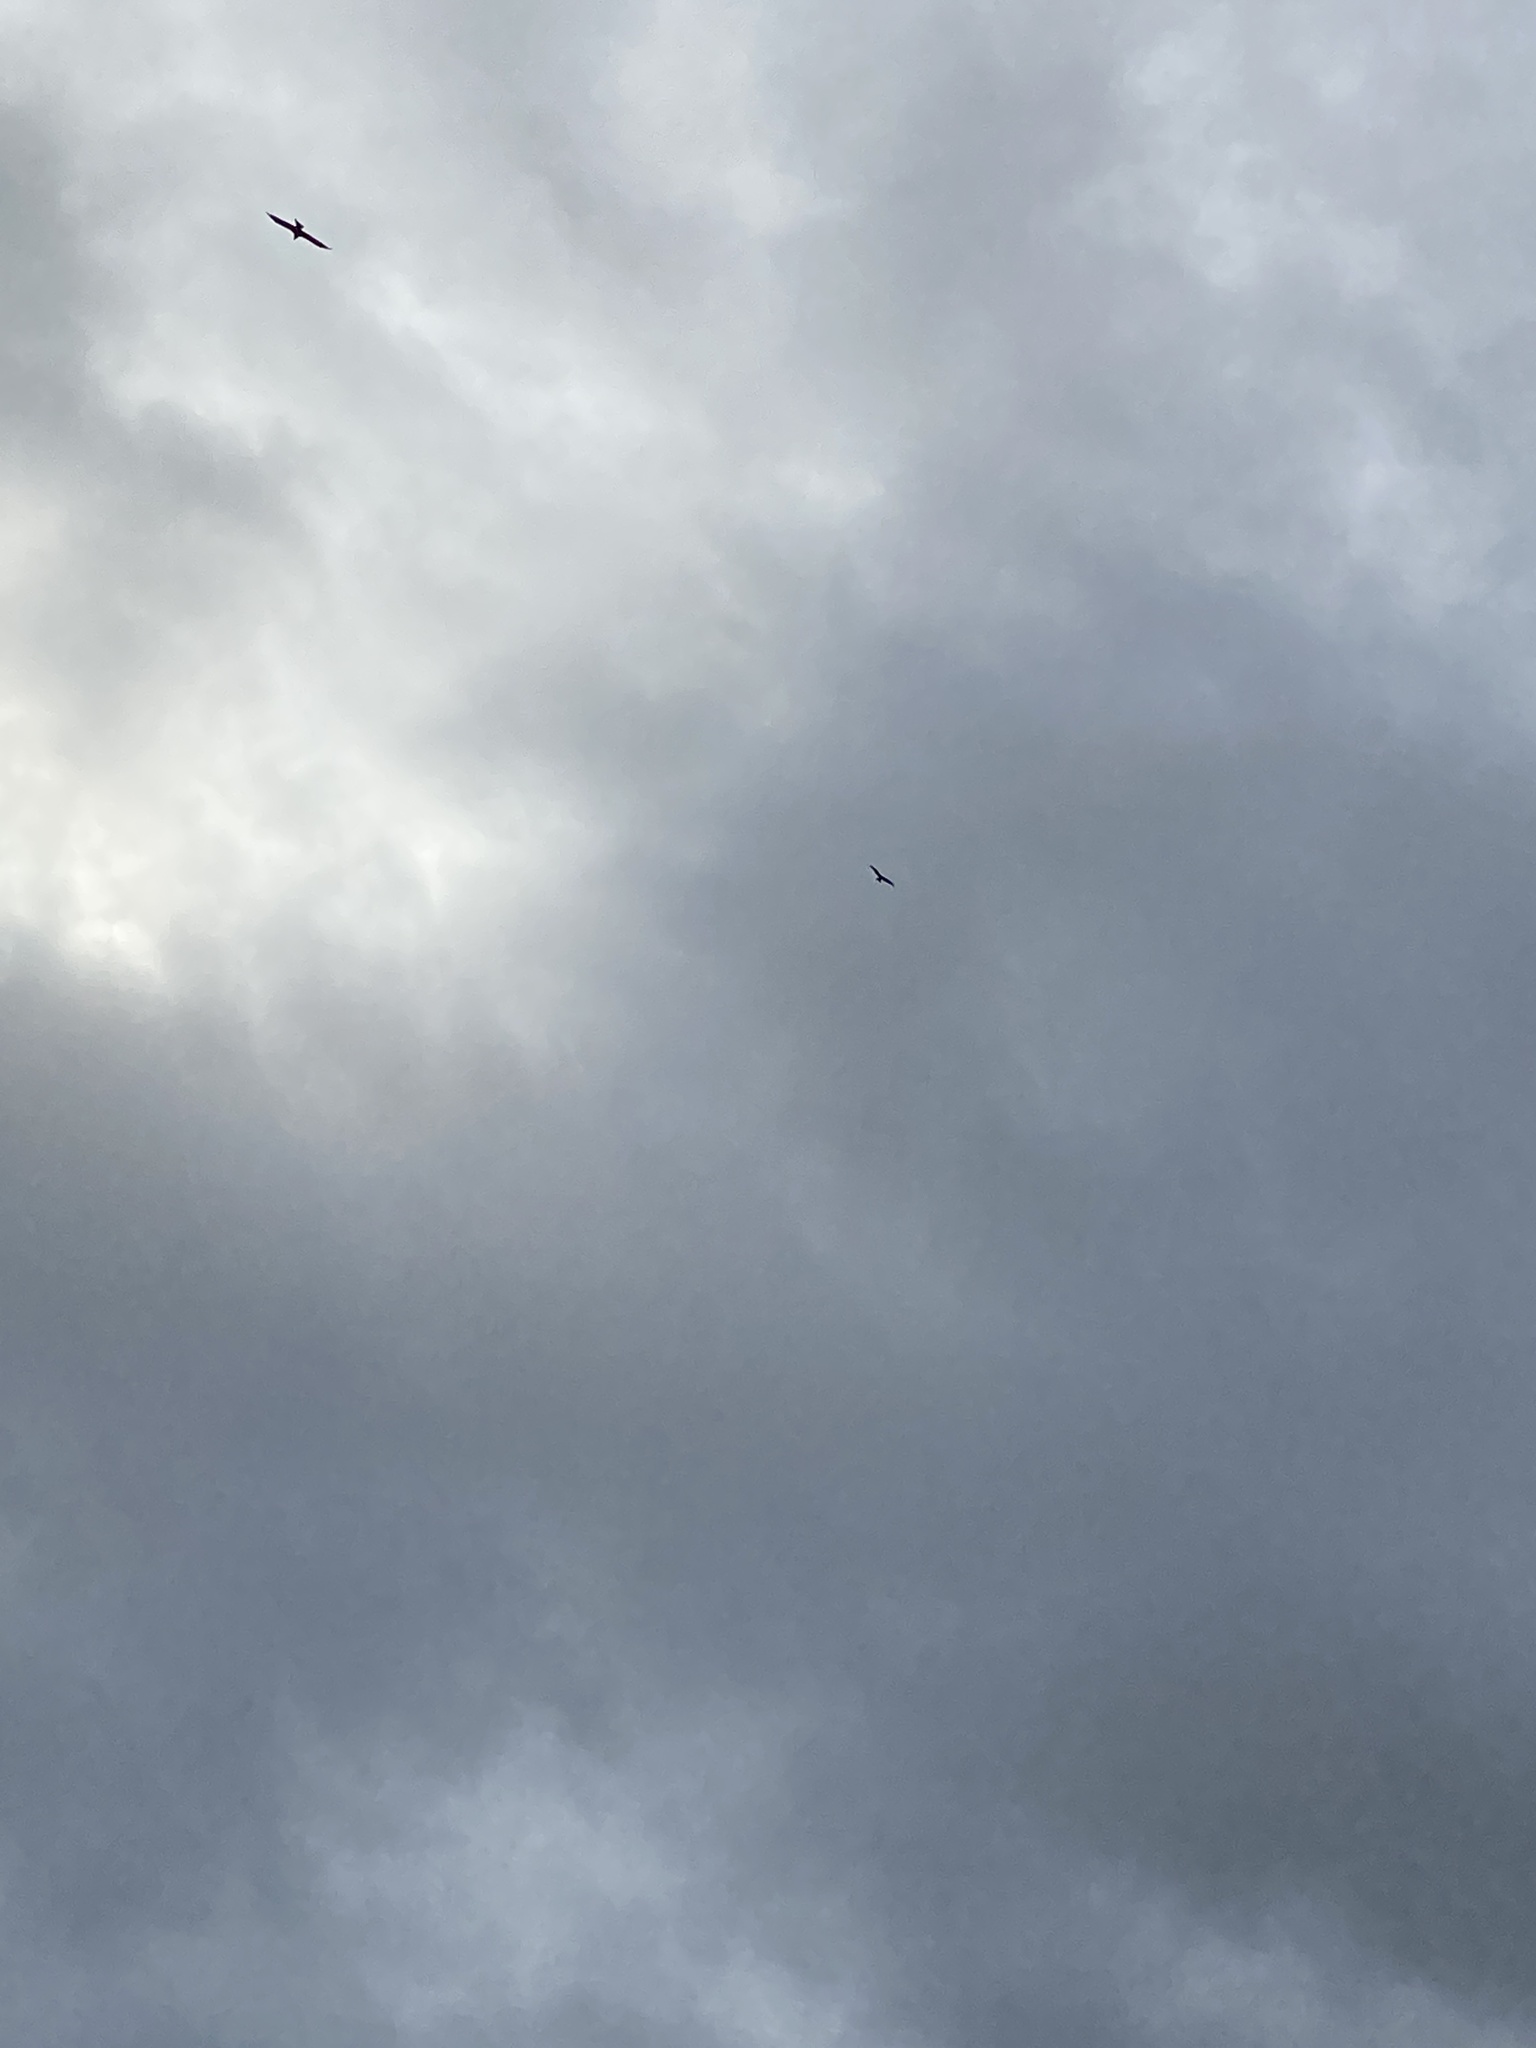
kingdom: Animalia
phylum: Chordata
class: Aves
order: Accipitriformes
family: Accipitridae
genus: Milvus
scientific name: Milvus milvus
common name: Red kite
